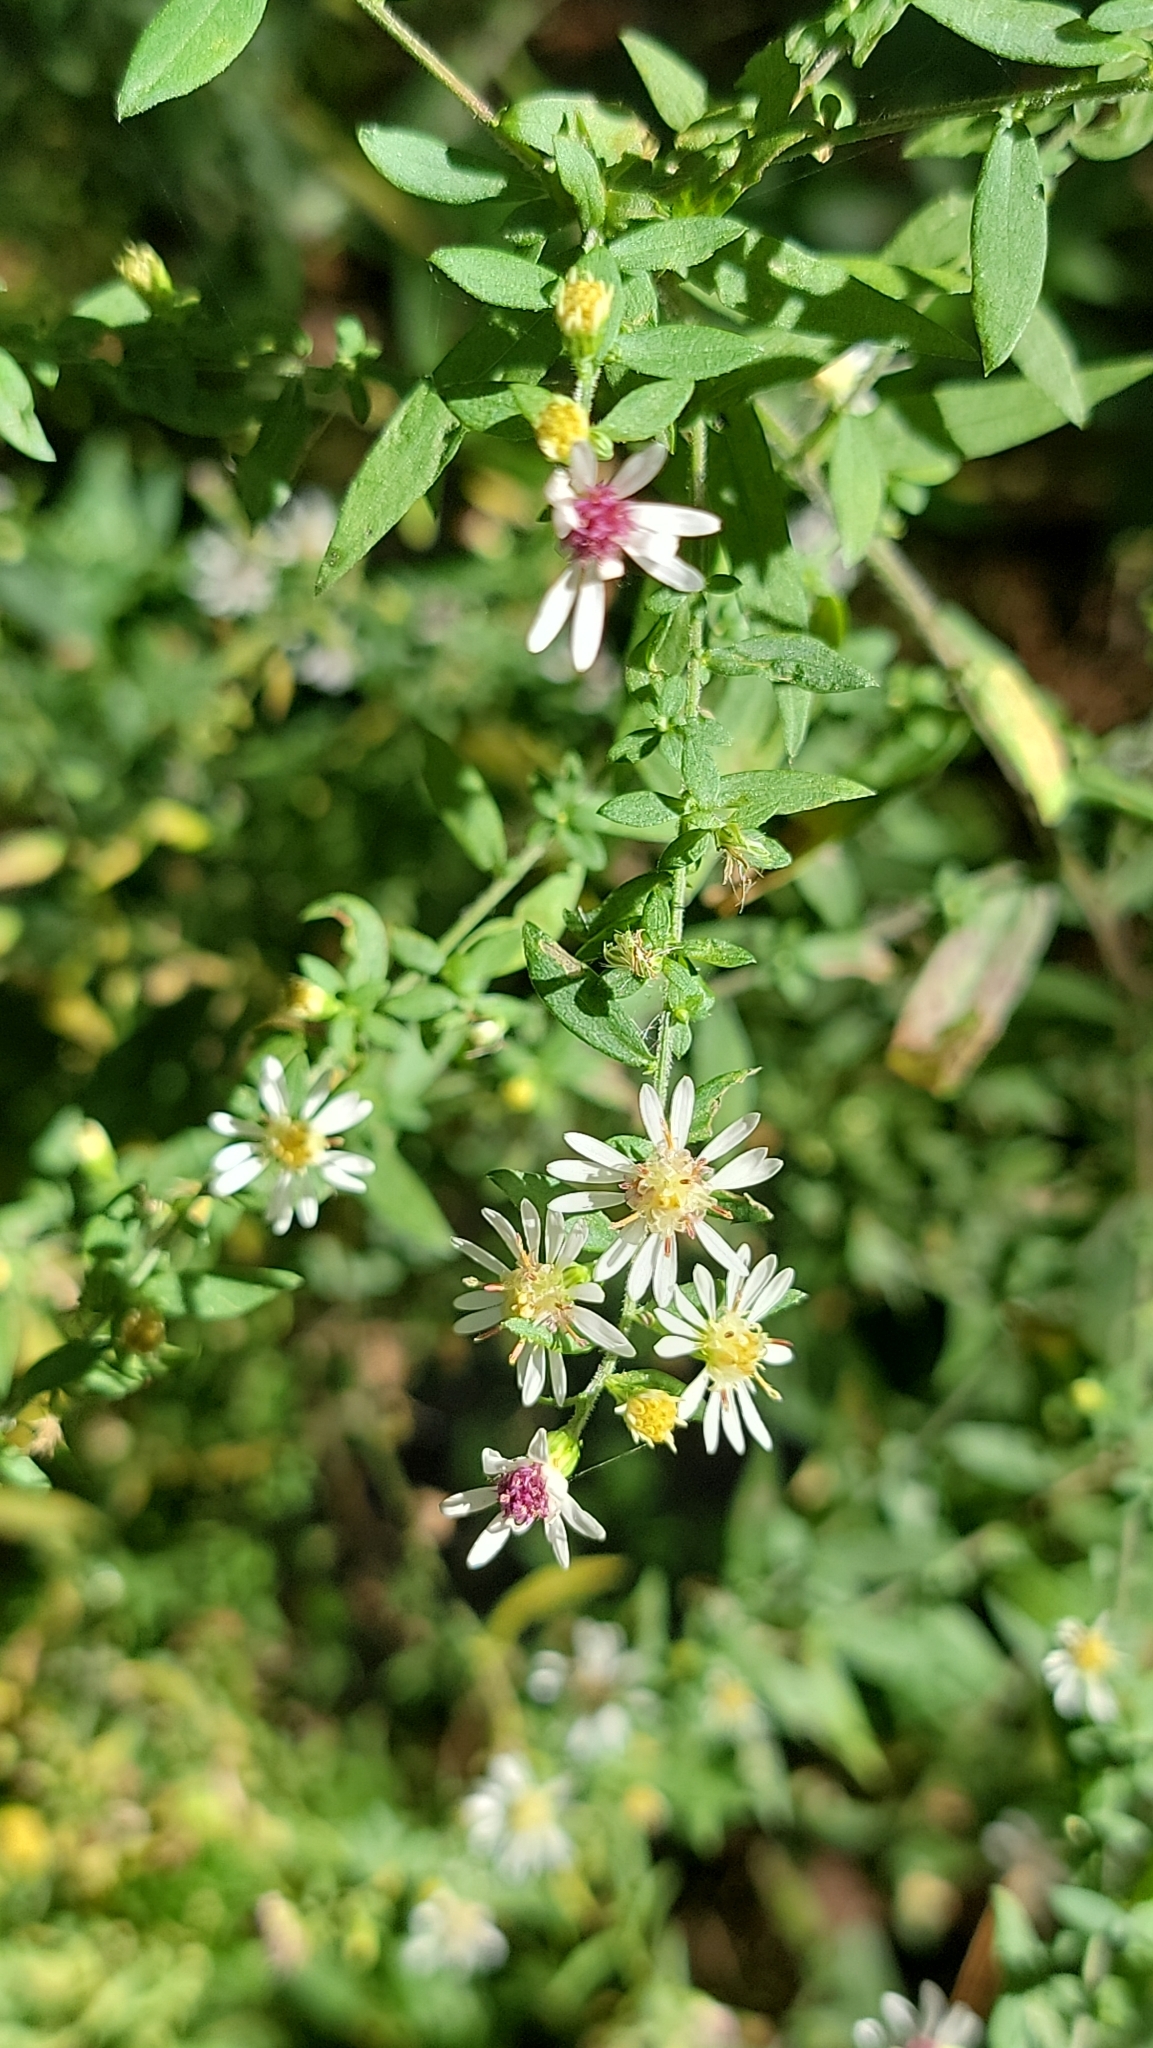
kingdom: Plantae
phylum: Tracheophyta
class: Magnoliopsida
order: Asterales
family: Asteraceae
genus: Symphyotrichum
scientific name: Symphyotrichum lateriflorum
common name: Calico aster
